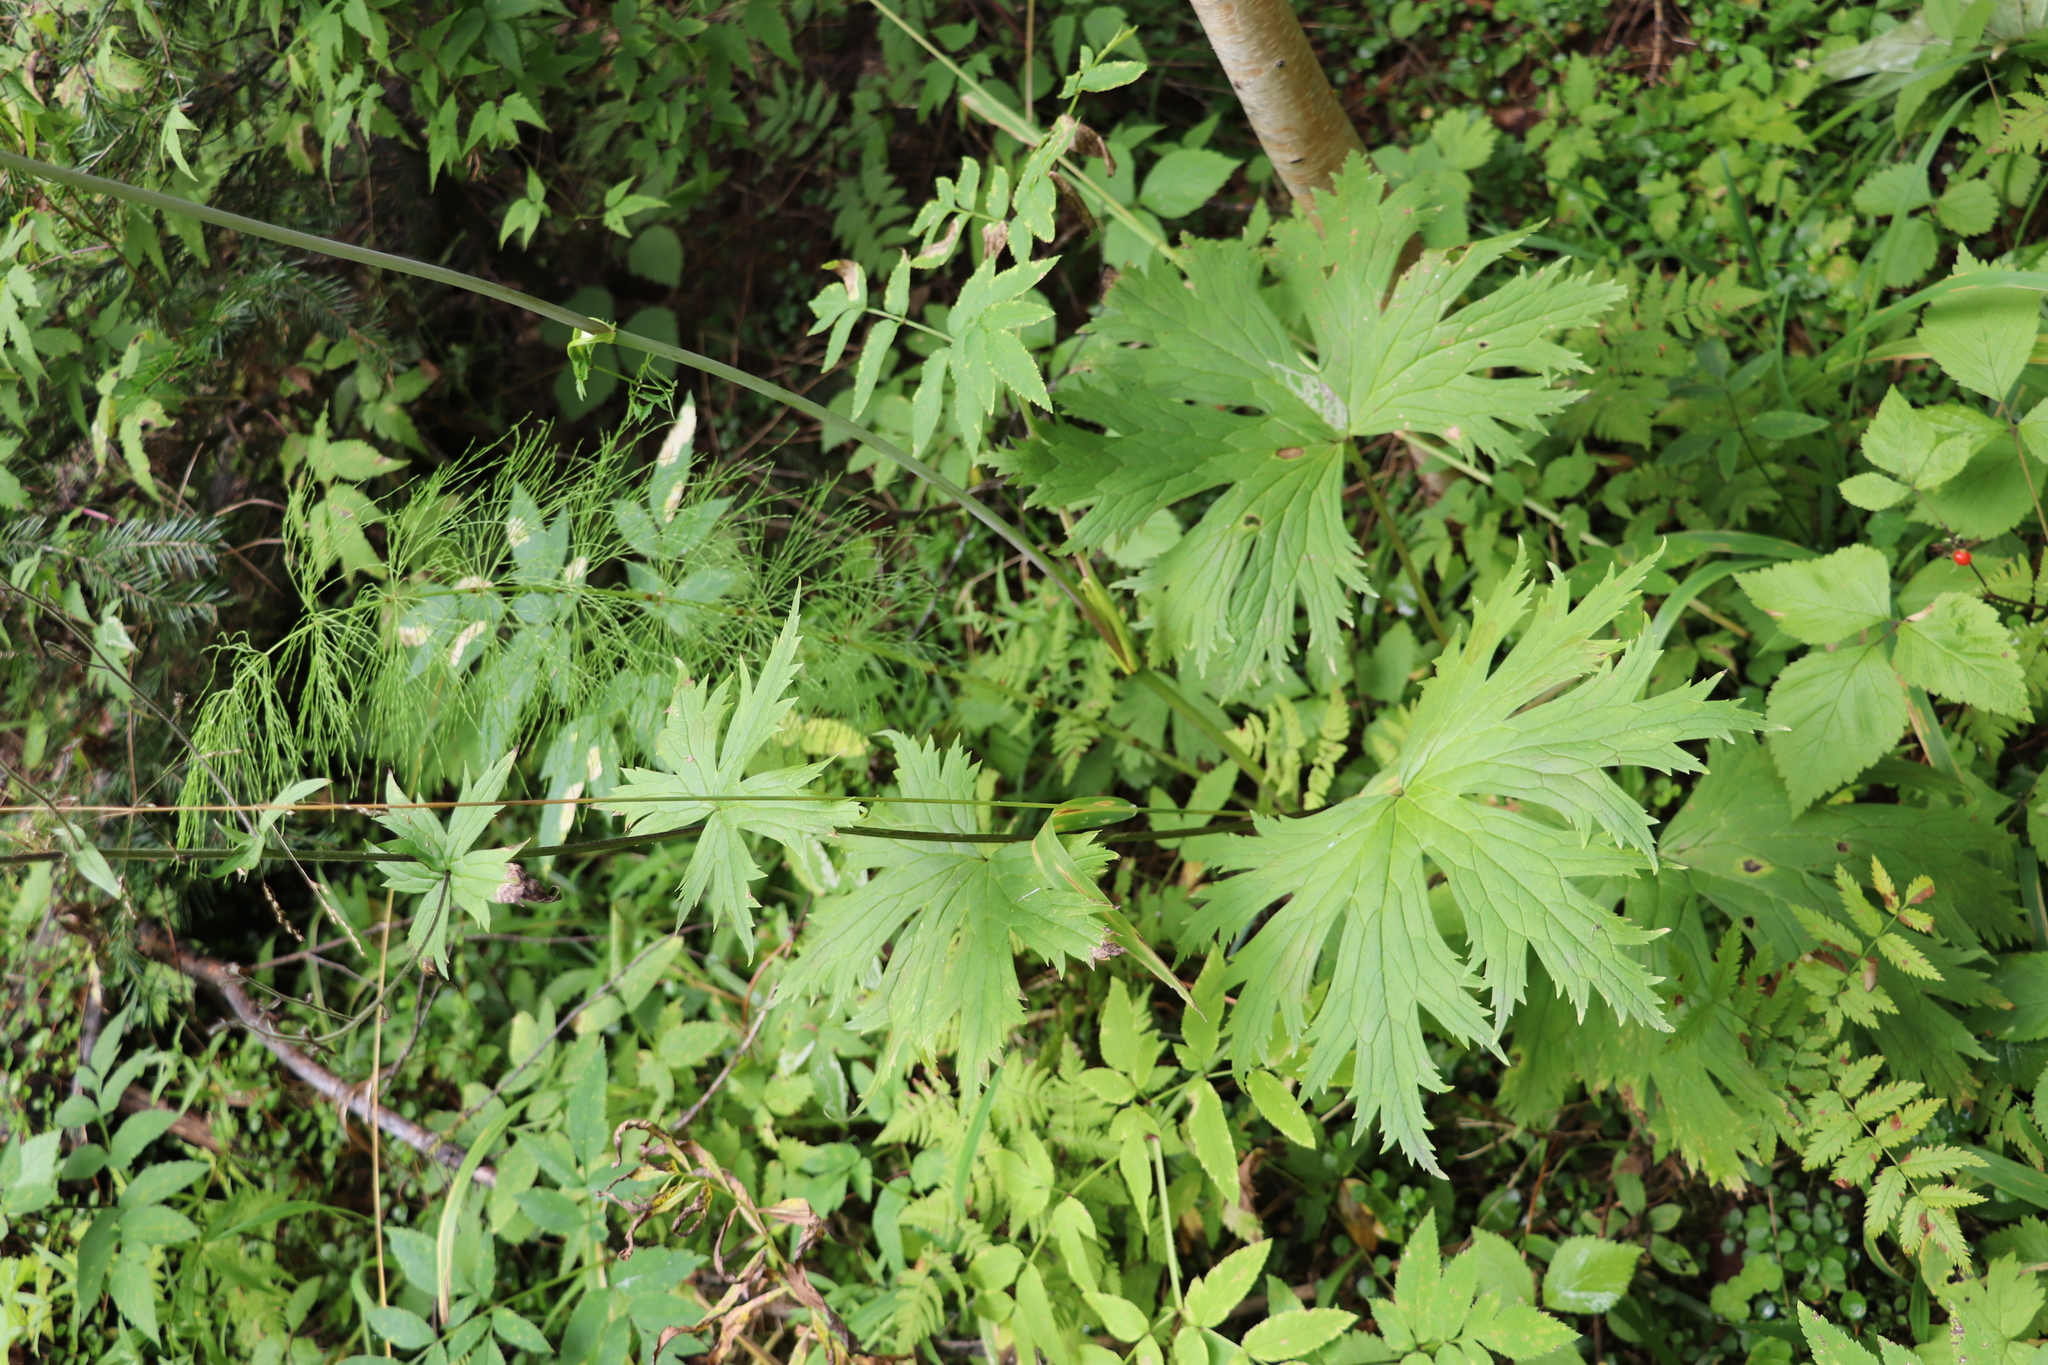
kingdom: Plantae
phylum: Tracheophyta
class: Magnoliopsida
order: Ranunculales
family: Ranunculaceae
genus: Aconitum
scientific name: Aconitum septentrionale
